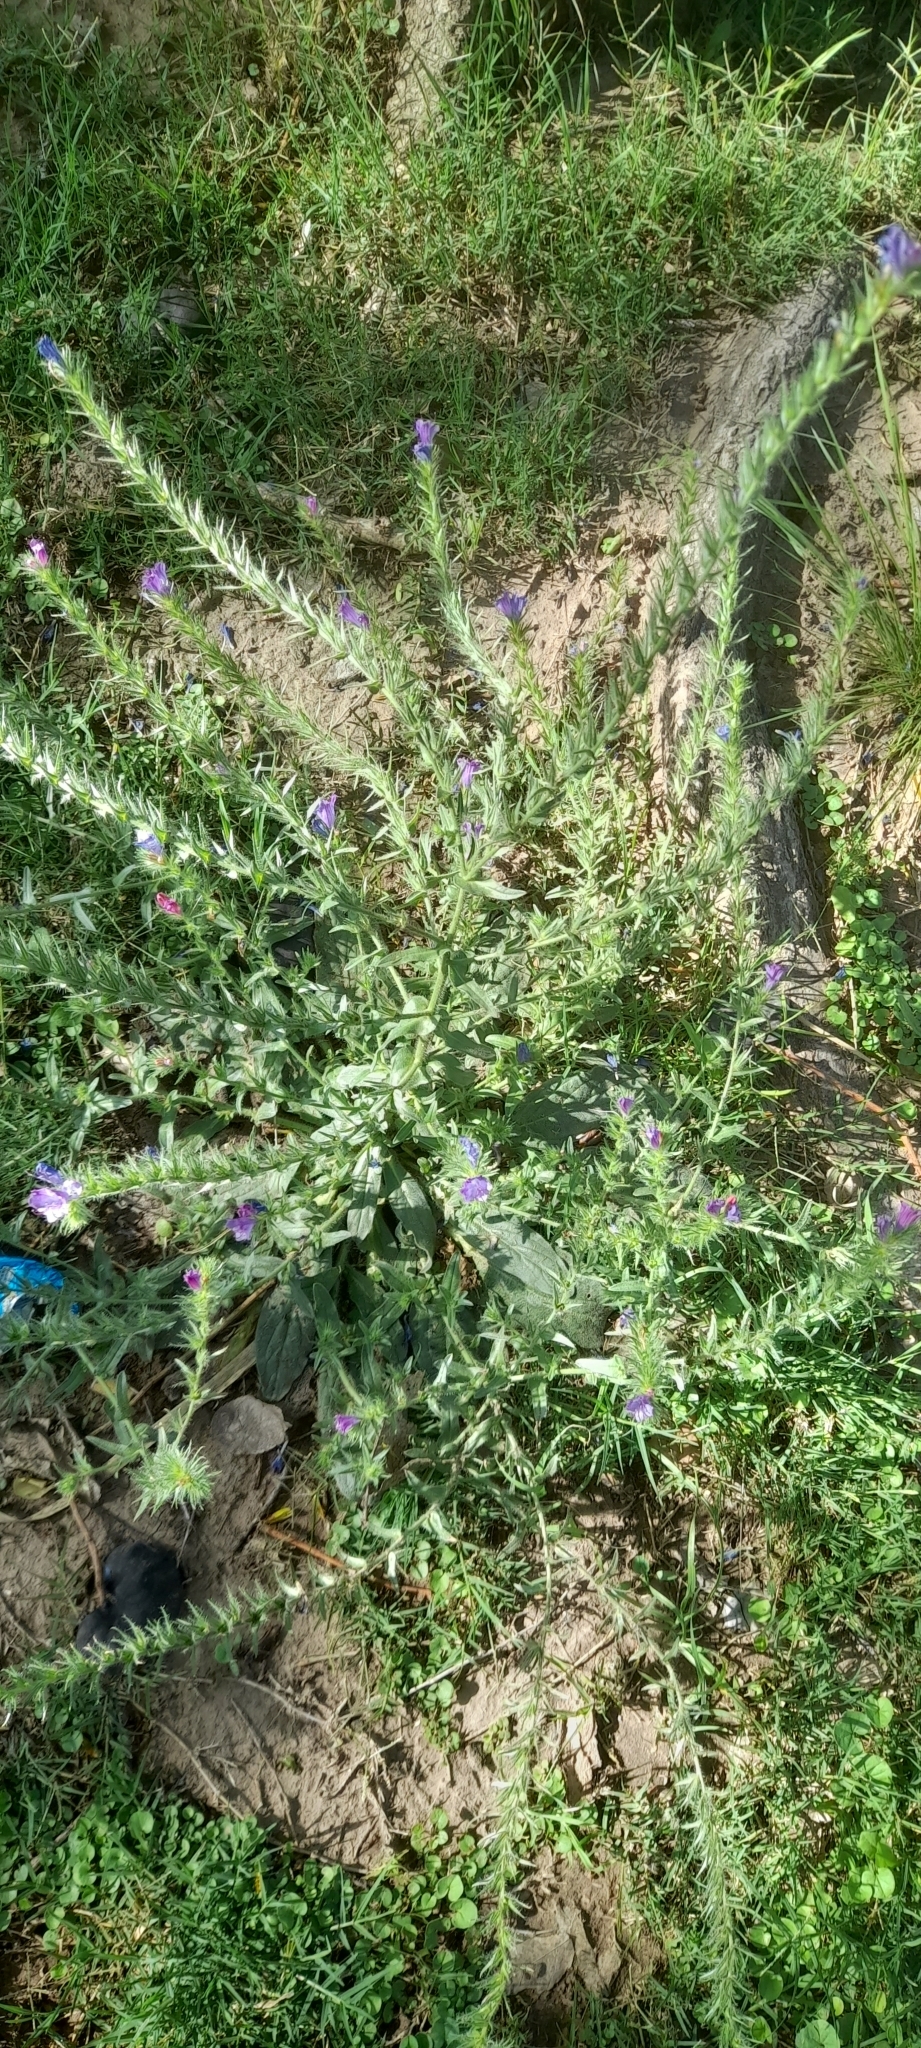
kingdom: Plantae
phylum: Tracheophyta
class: Magnoliopsida
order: Boraginales
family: Boraginaceae
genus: Echium
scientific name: Echium plantagineum
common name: Purple viper's-bugloss
